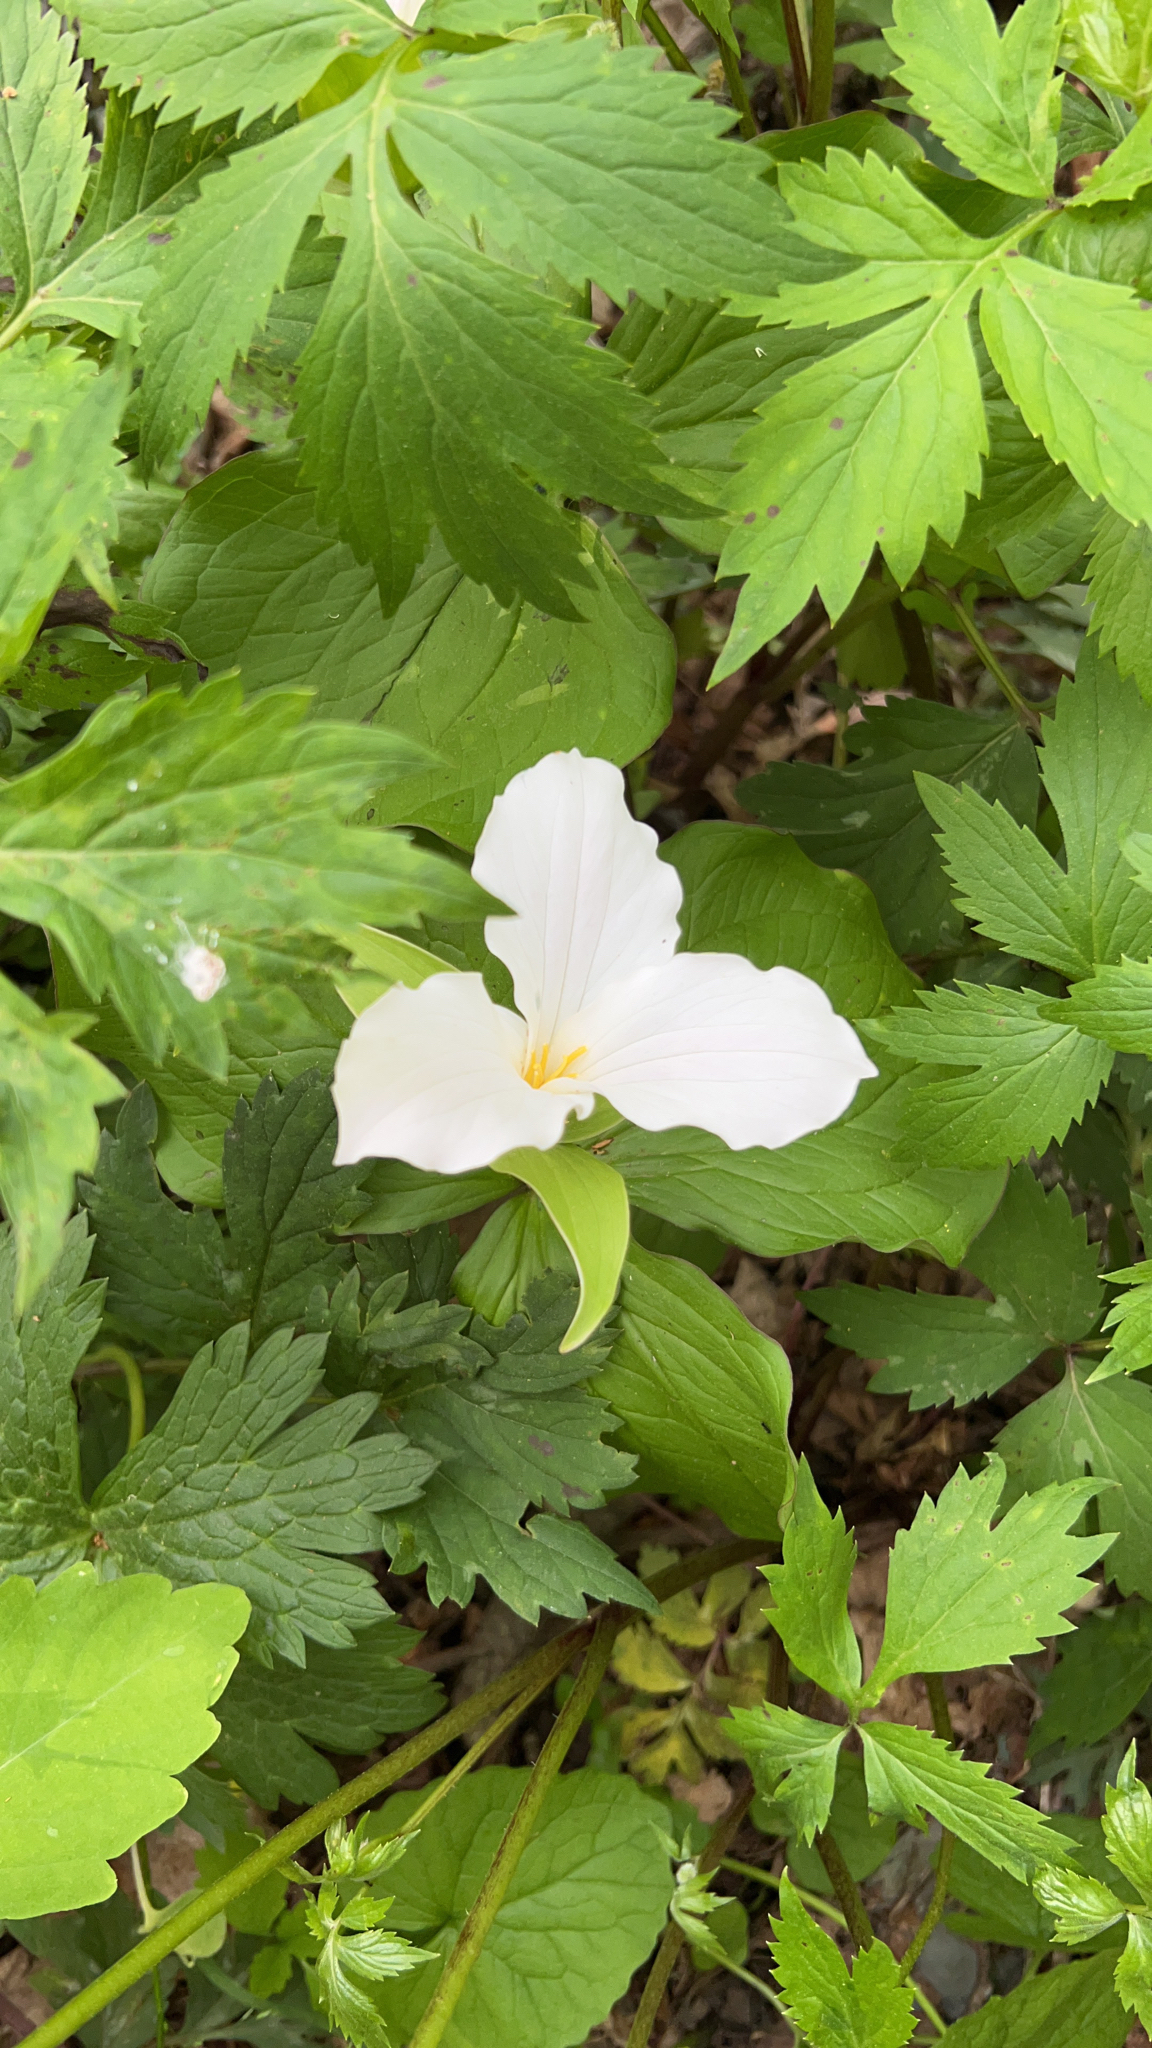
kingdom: Plantae
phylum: Tracheophyta
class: Liliopsida
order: Liliales
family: Melanthiaceae
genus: Trillium
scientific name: Trillium grandiflorum
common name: Great white trillium
